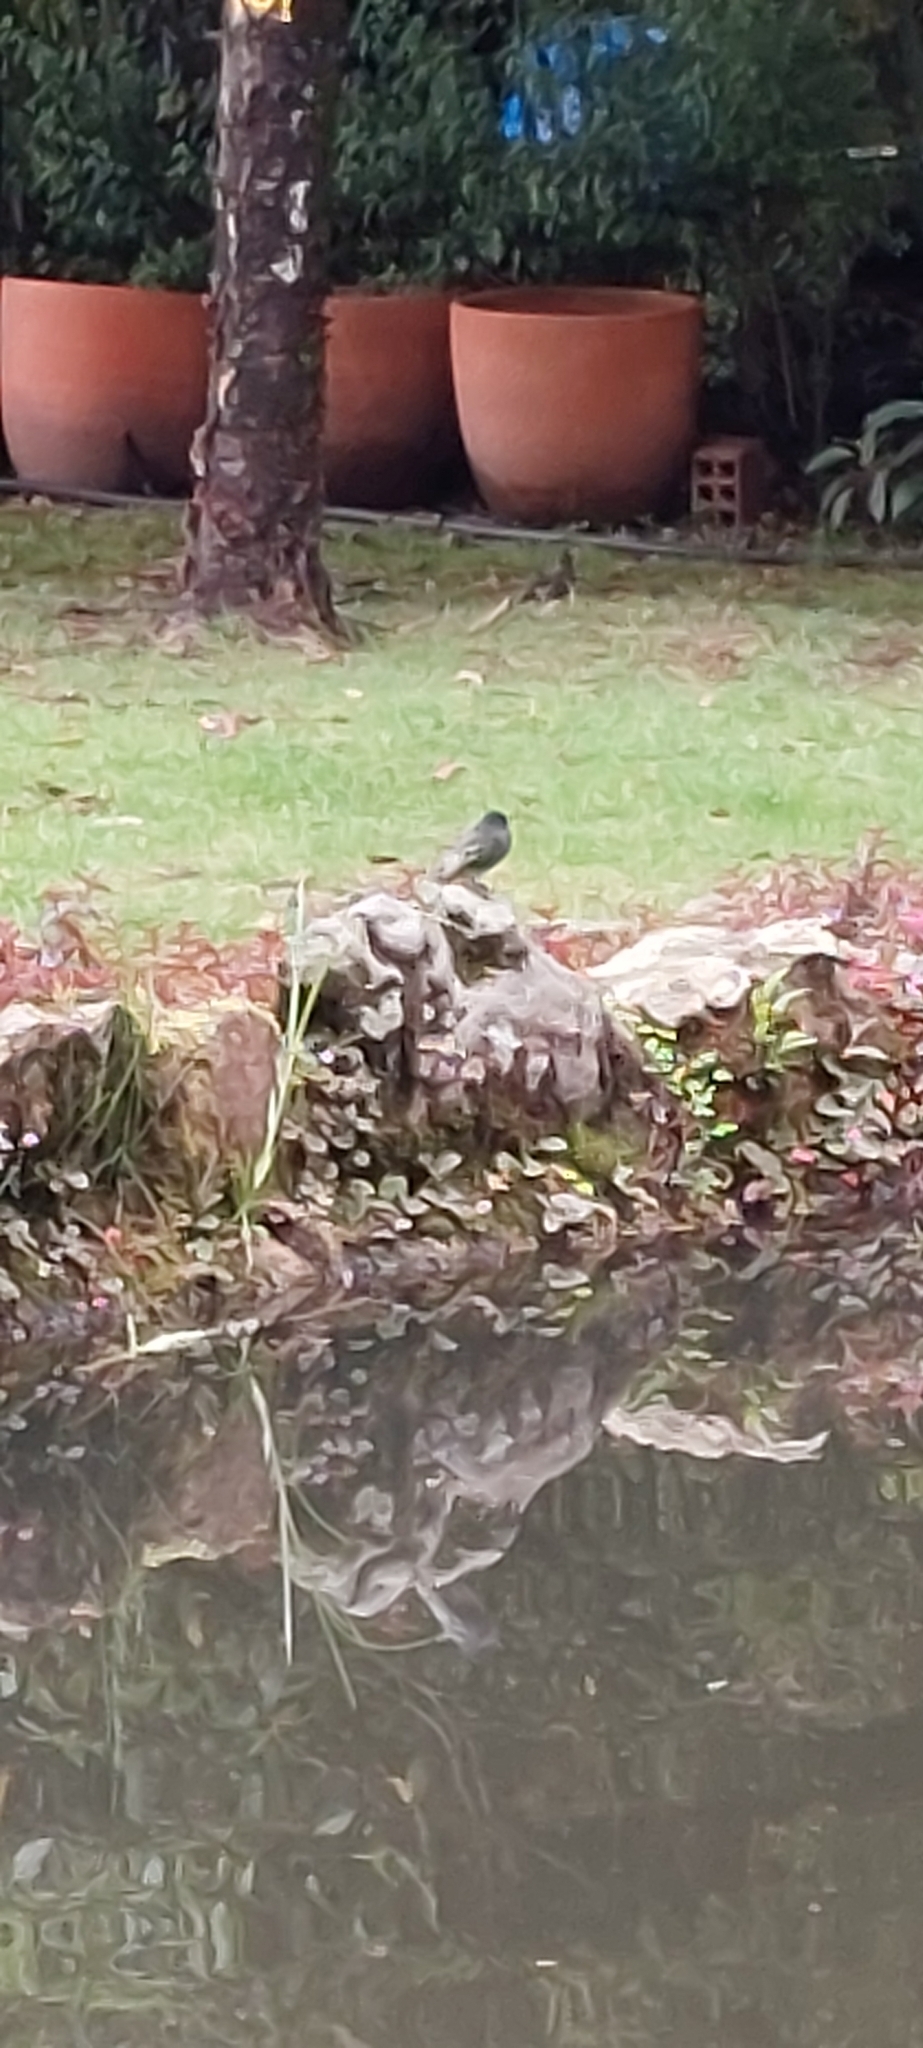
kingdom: Animalia
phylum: Chordata
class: Aves
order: Passeriformes
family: Tyrannidae
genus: Sayornis
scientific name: Sayornis nigricans
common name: Black phoebe
